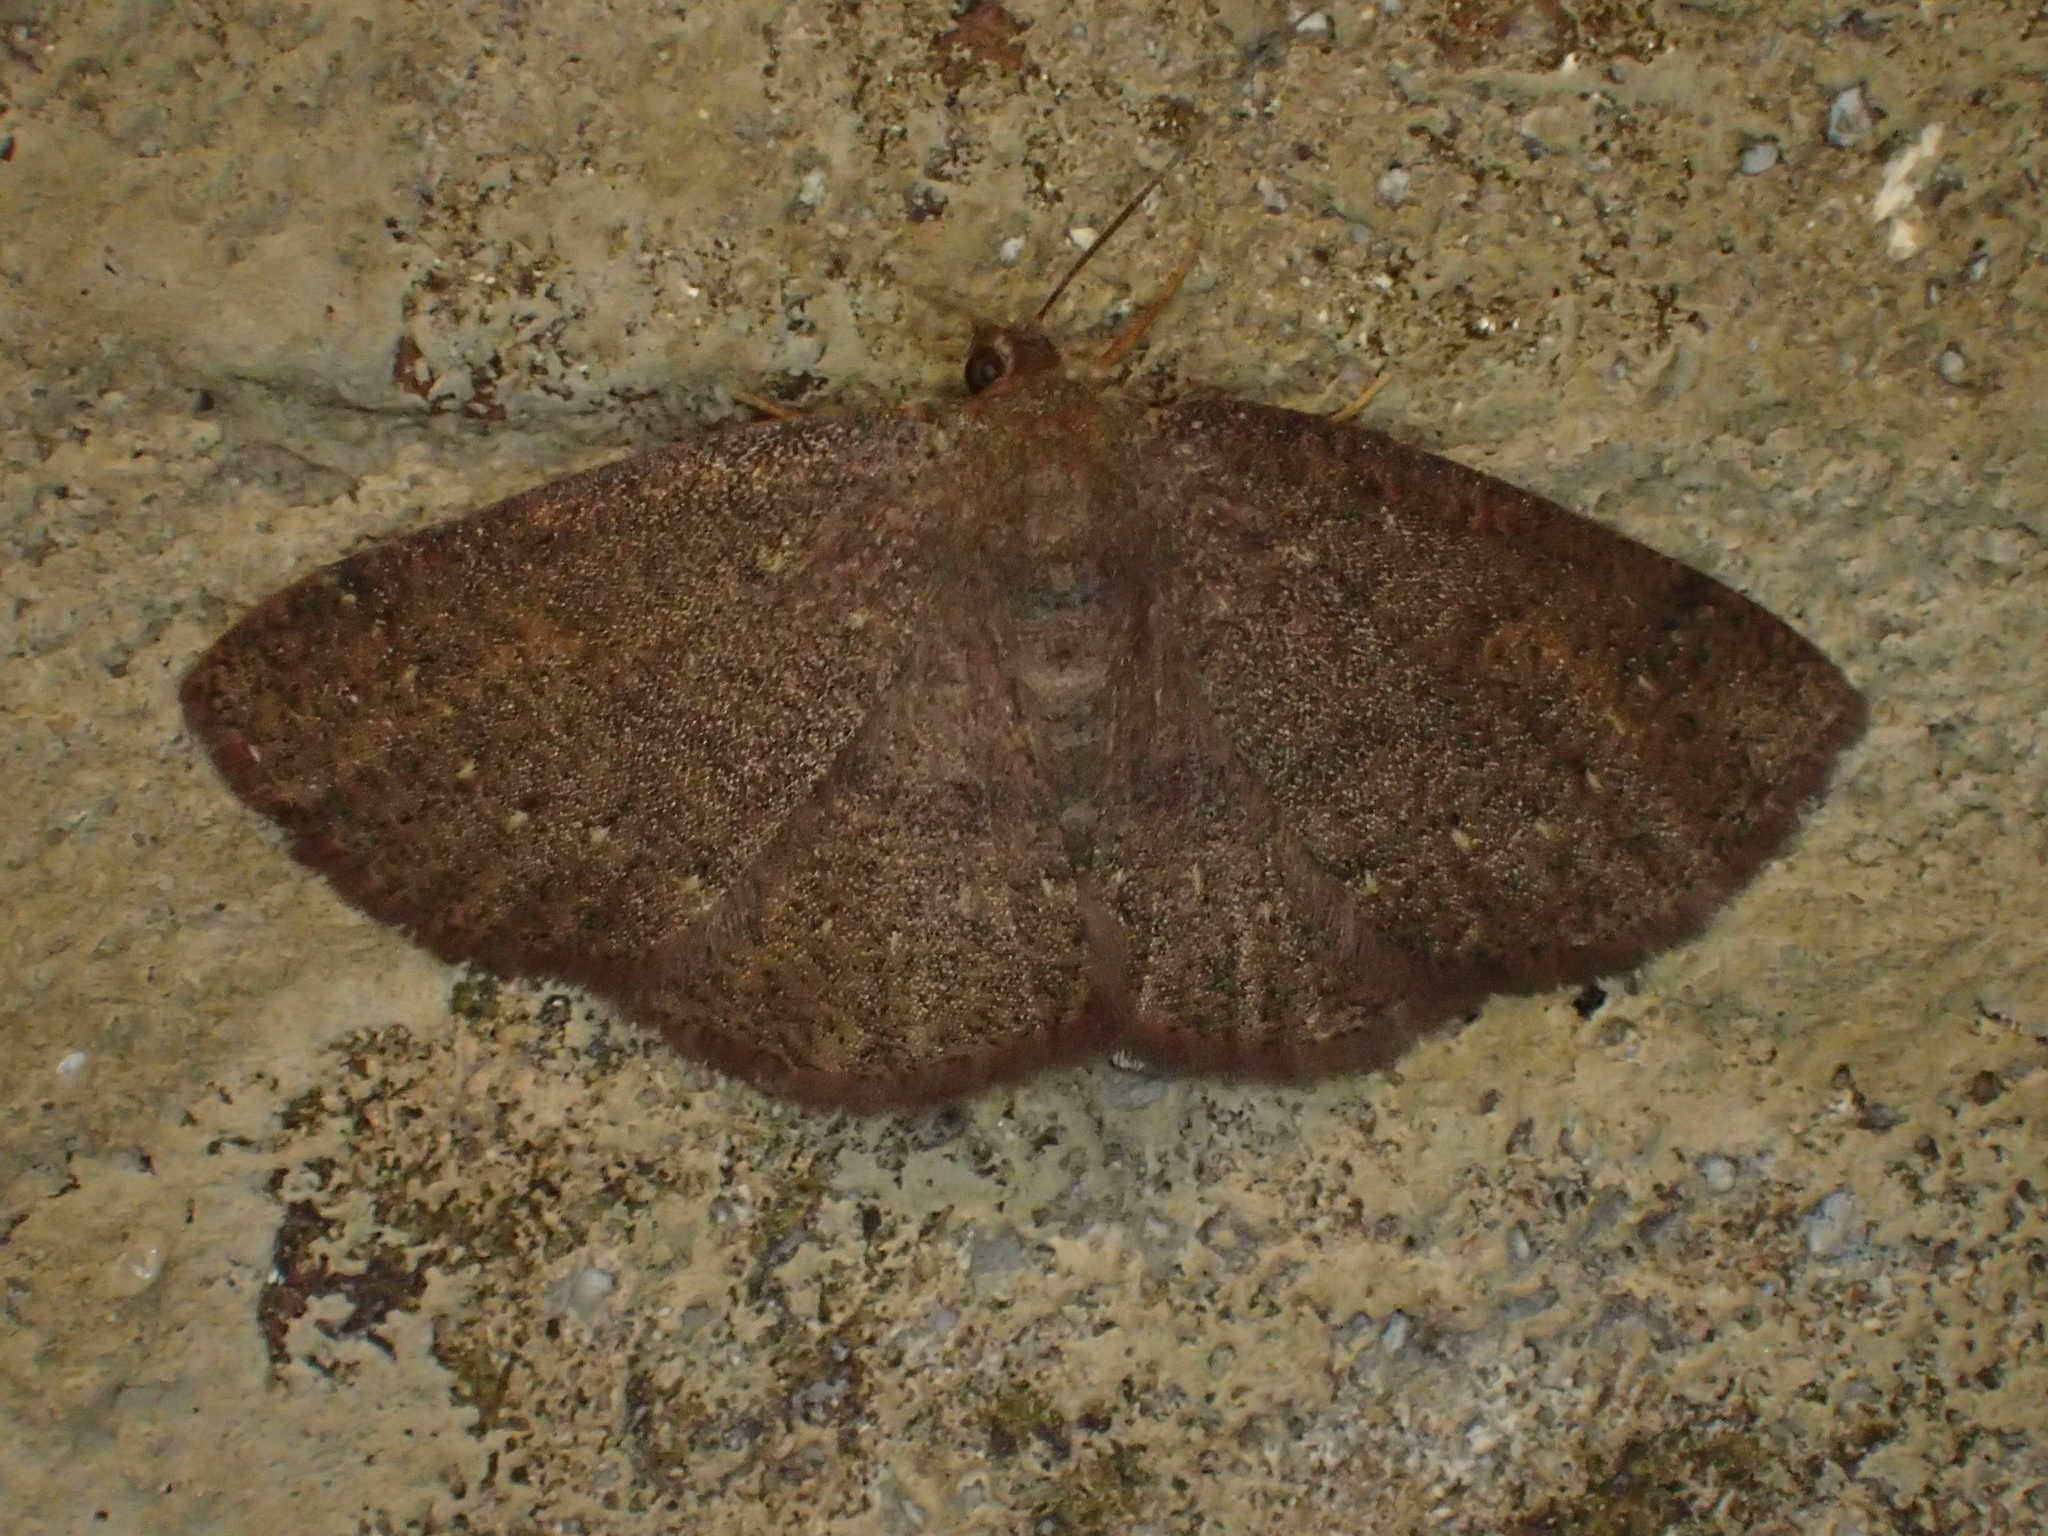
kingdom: Animalia
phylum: Arthropoda
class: Insecta
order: Lepidoptera
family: Geometridae
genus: Ilexia
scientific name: Ilexia intractata
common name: Black-dotted ruddy moth
